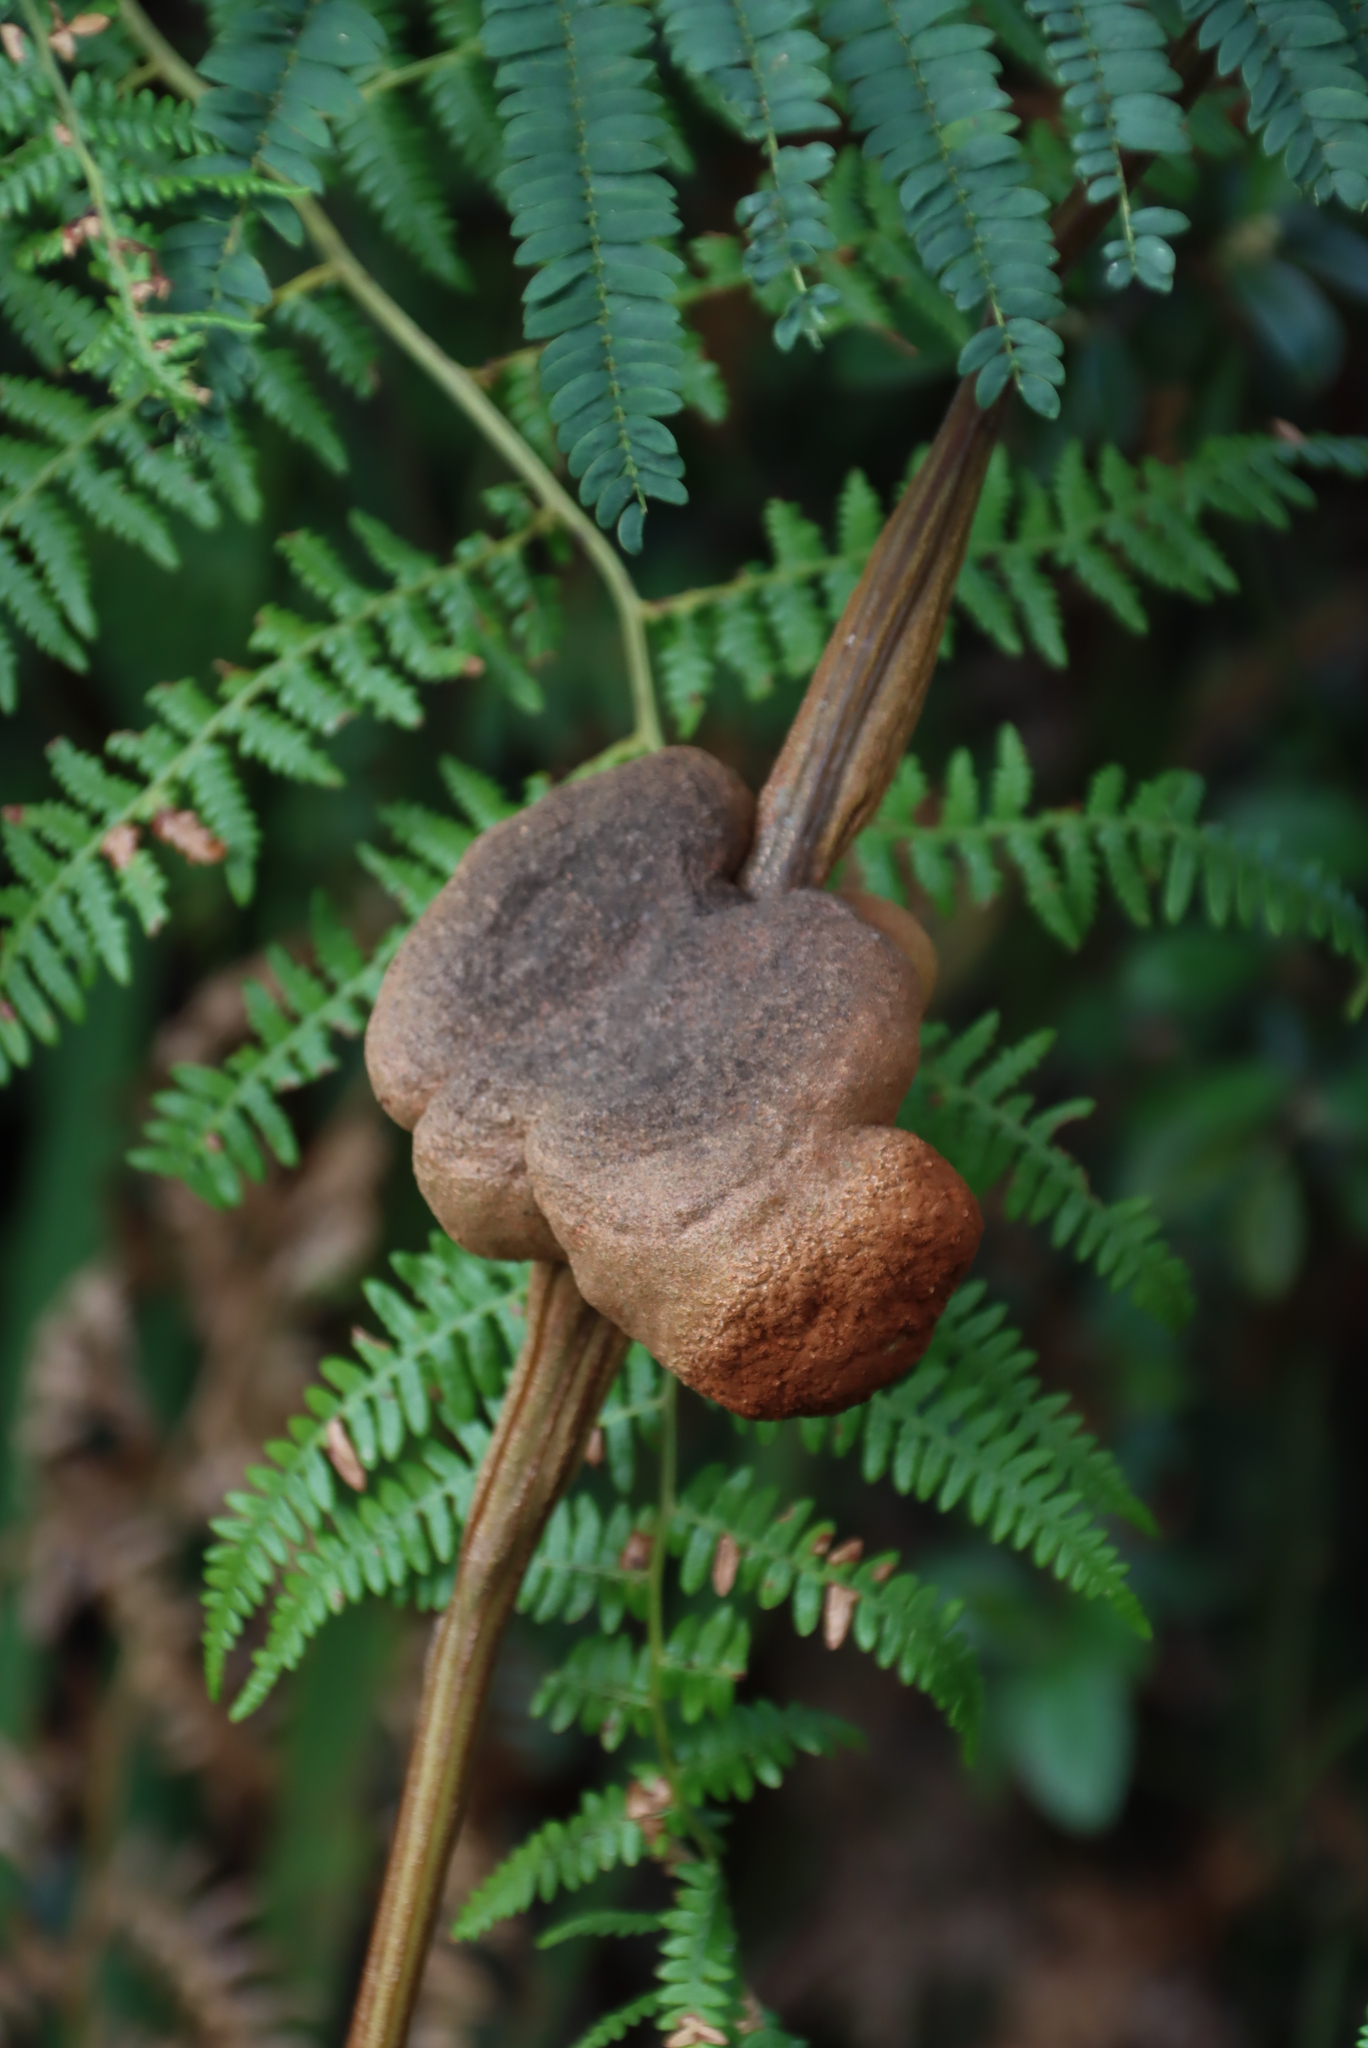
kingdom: Fungi
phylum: Basidiomycota
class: Pucciniomycetes
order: Pucciniales
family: Uromycladiaceae
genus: Uromycladium
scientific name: Uromycladium woodii
